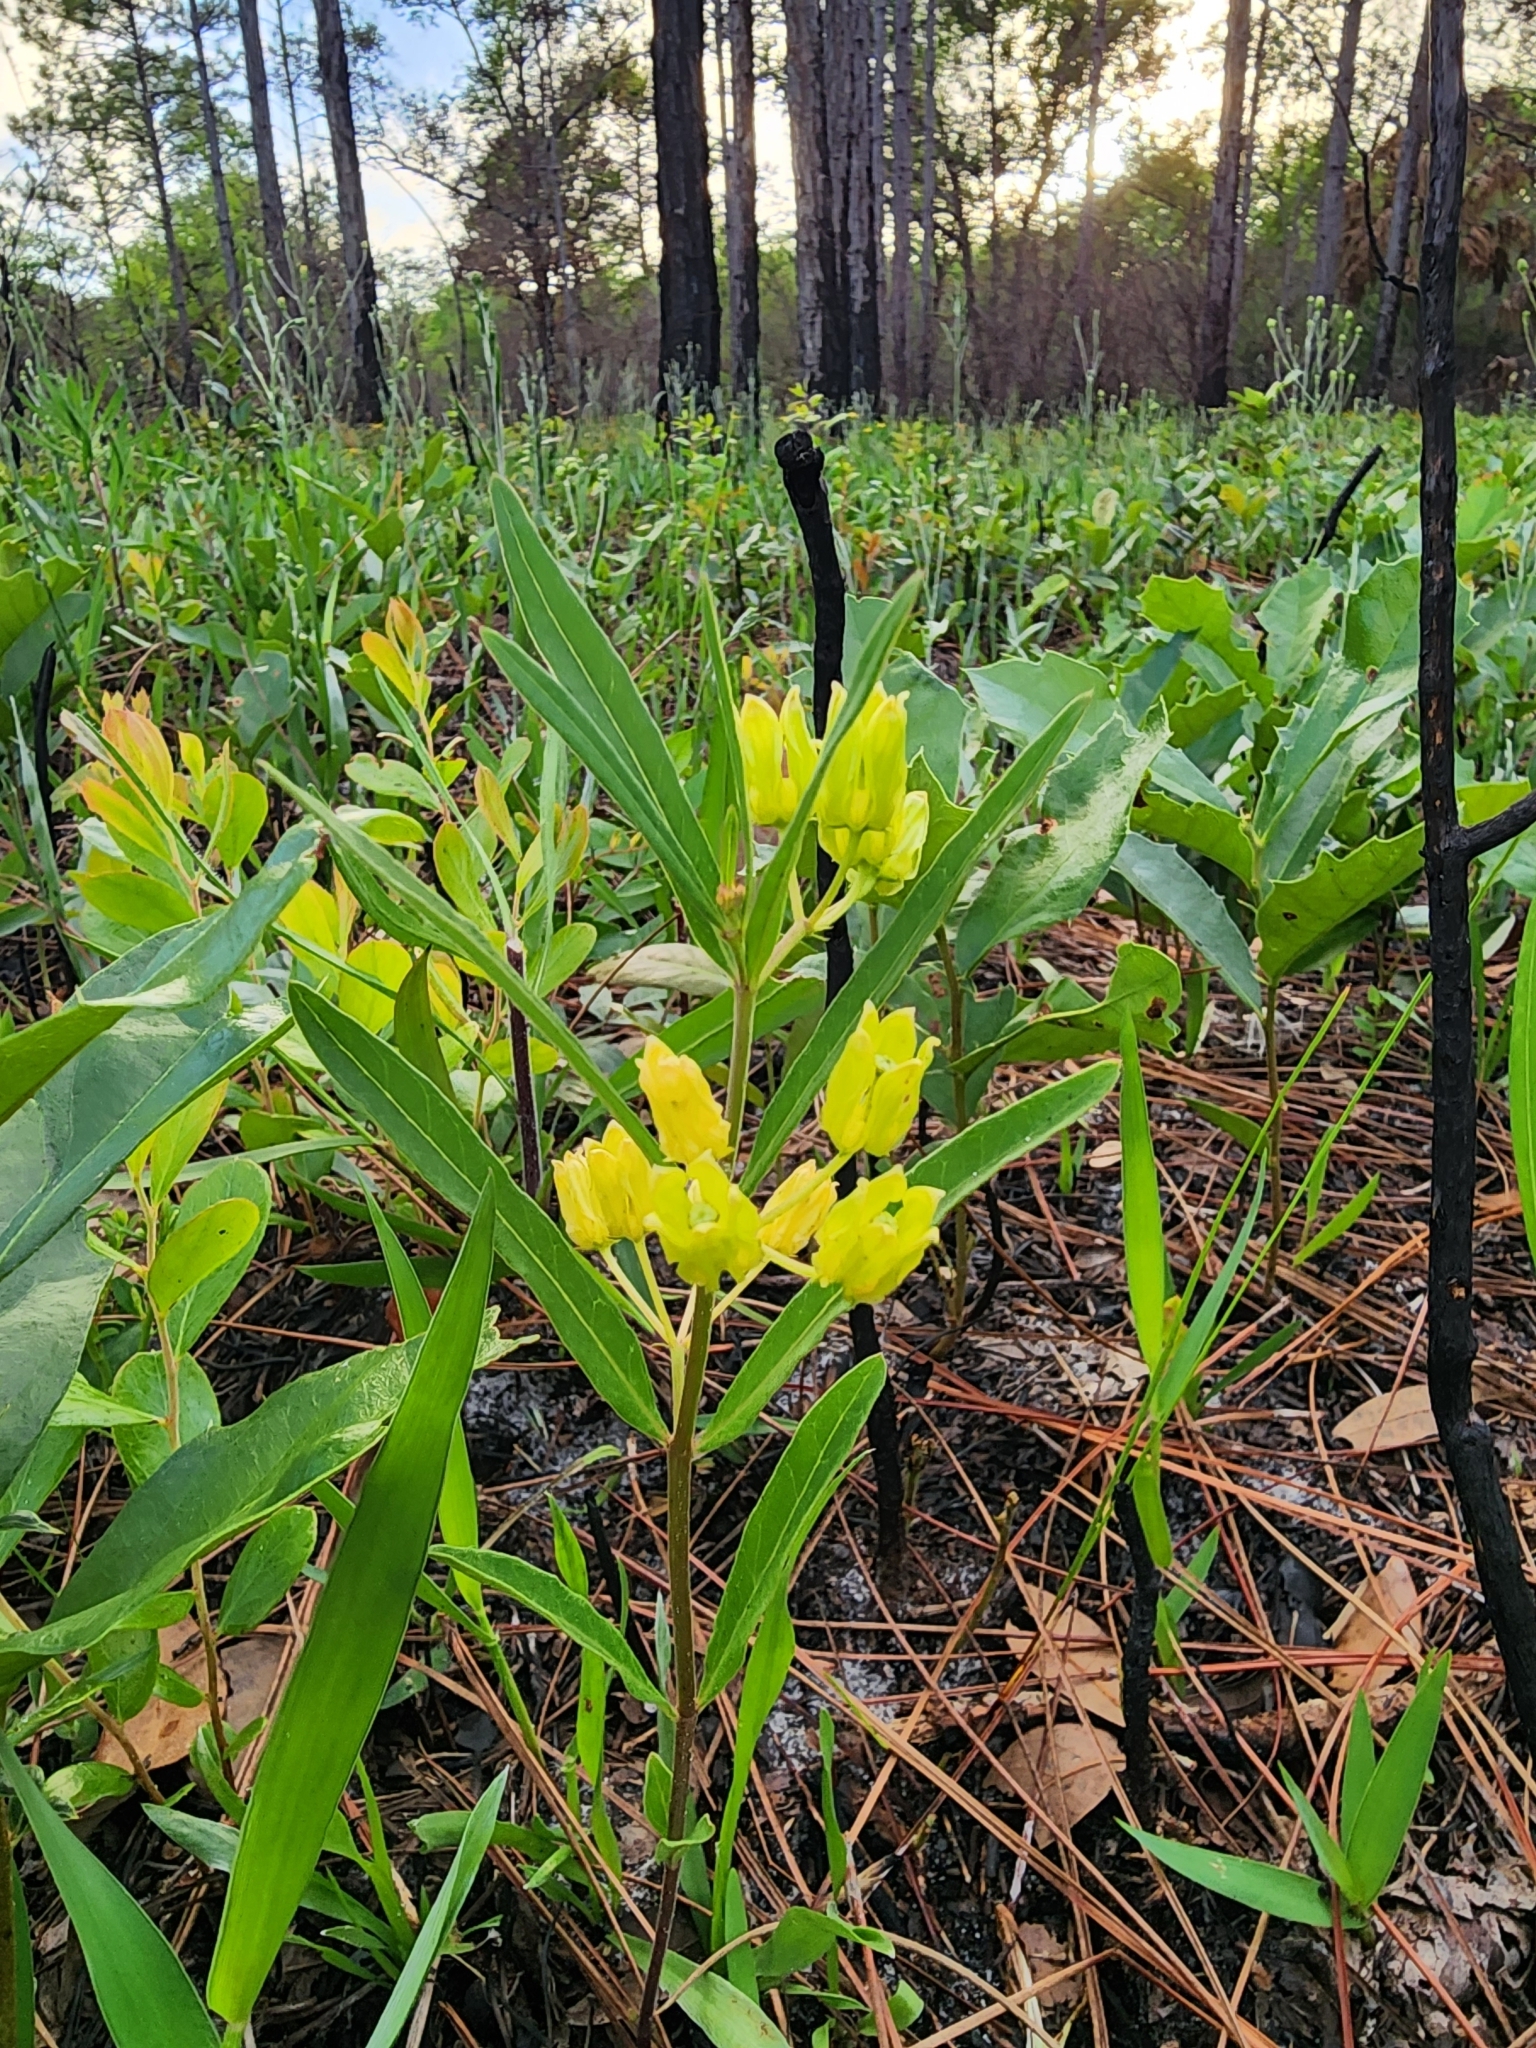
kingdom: Plantae
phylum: Tracheophyta
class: Magnoliopsida
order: Gentianales
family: Apocynaceae
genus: Asclepias
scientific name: Asclepias pedicellata
